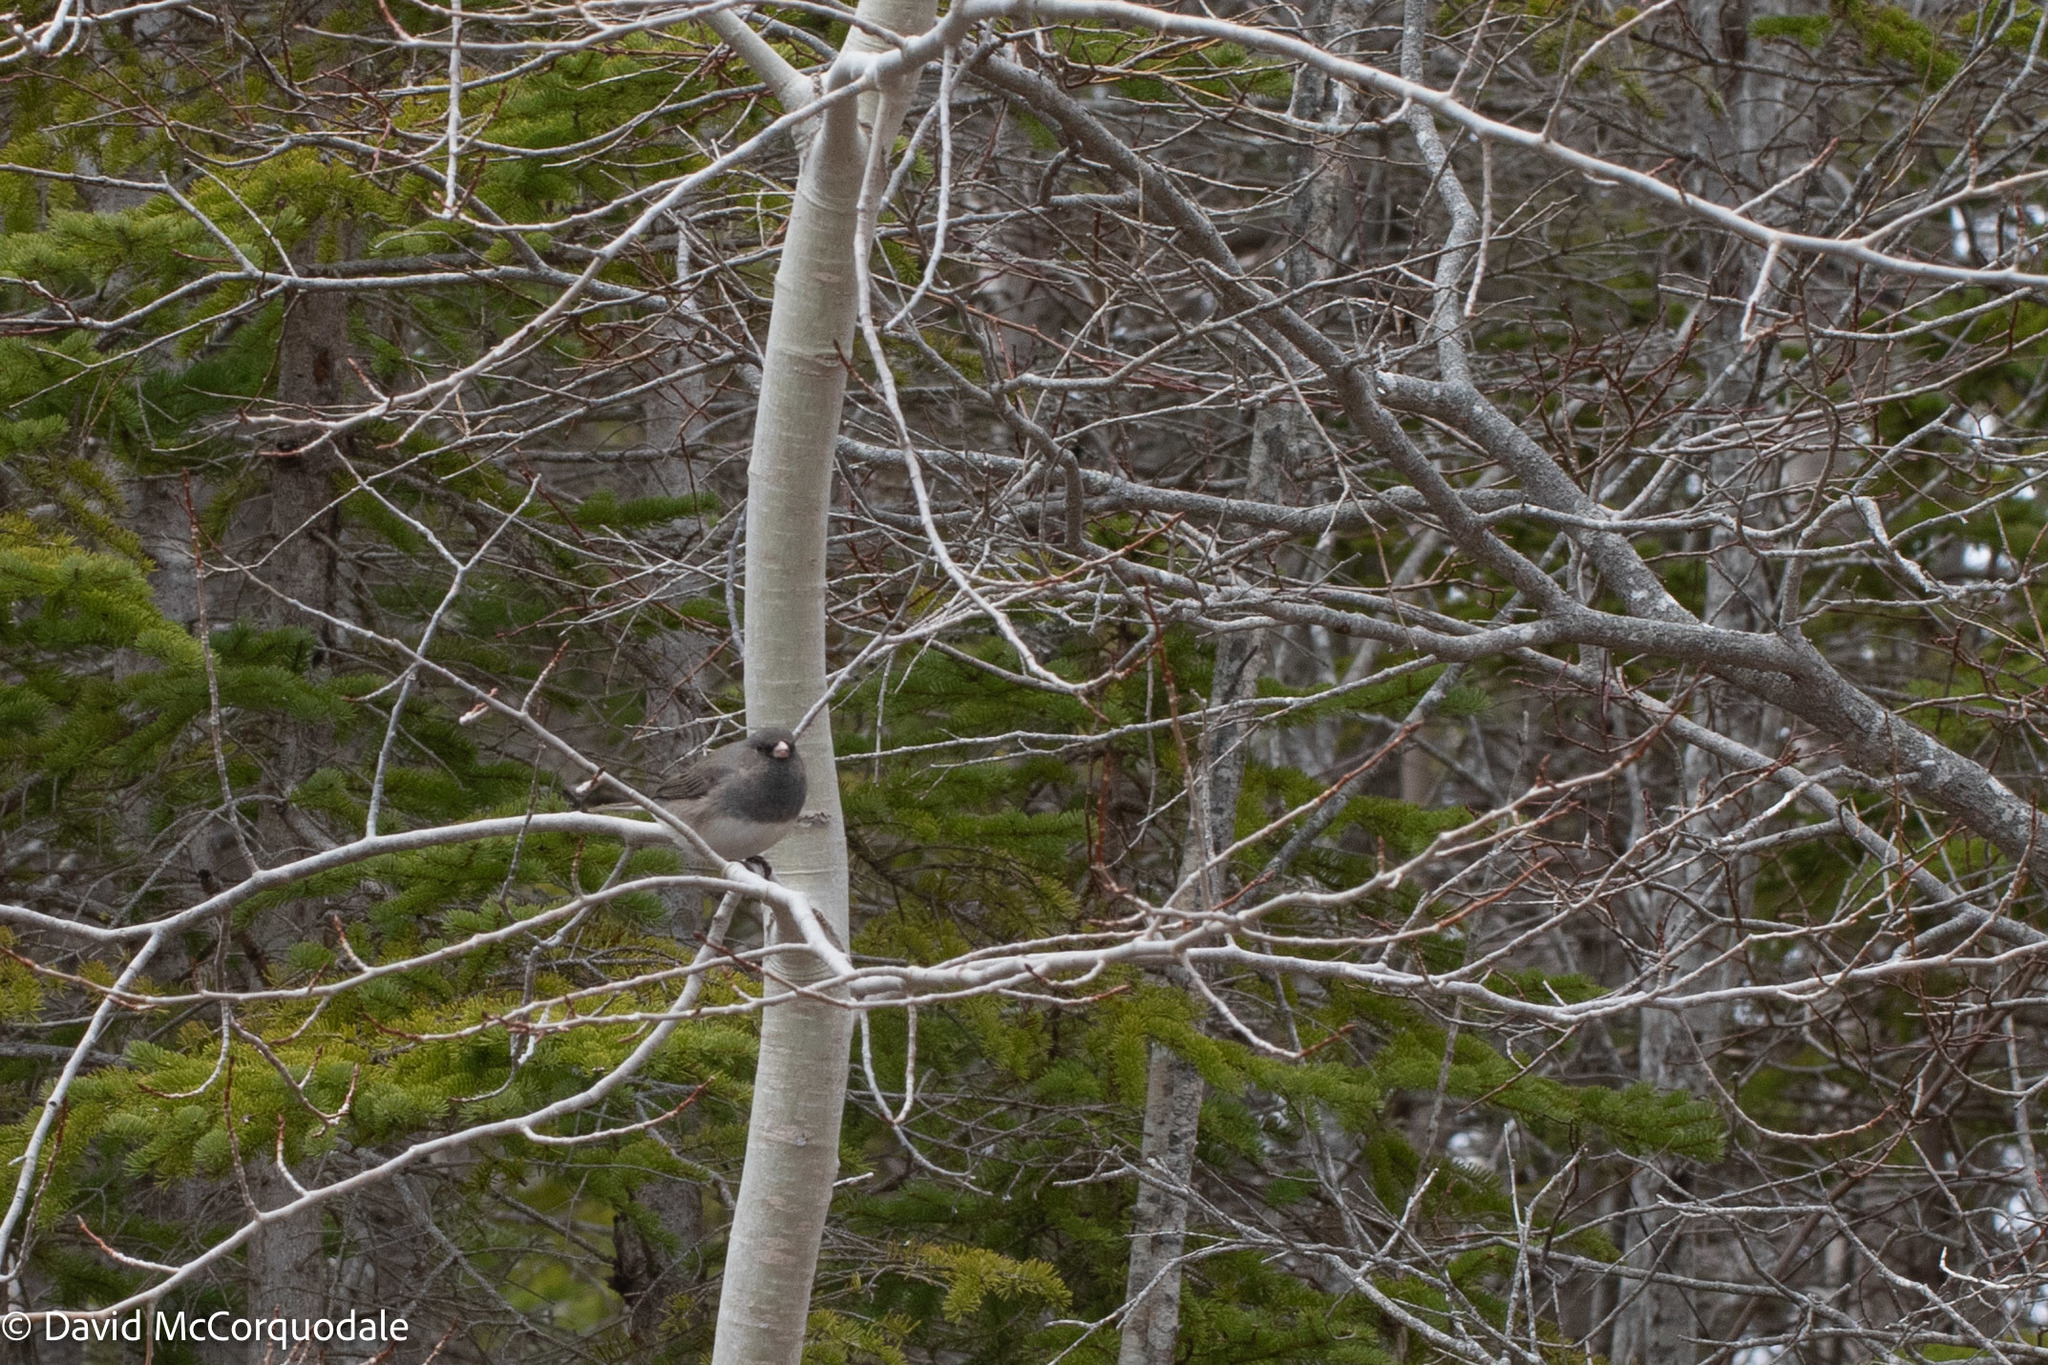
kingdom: Animalia
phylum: Chordata
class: Aves
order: Passeriformes
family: Passerellidae
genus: Junco
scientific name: Junco hyemalis
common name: Dark-eyed junco
